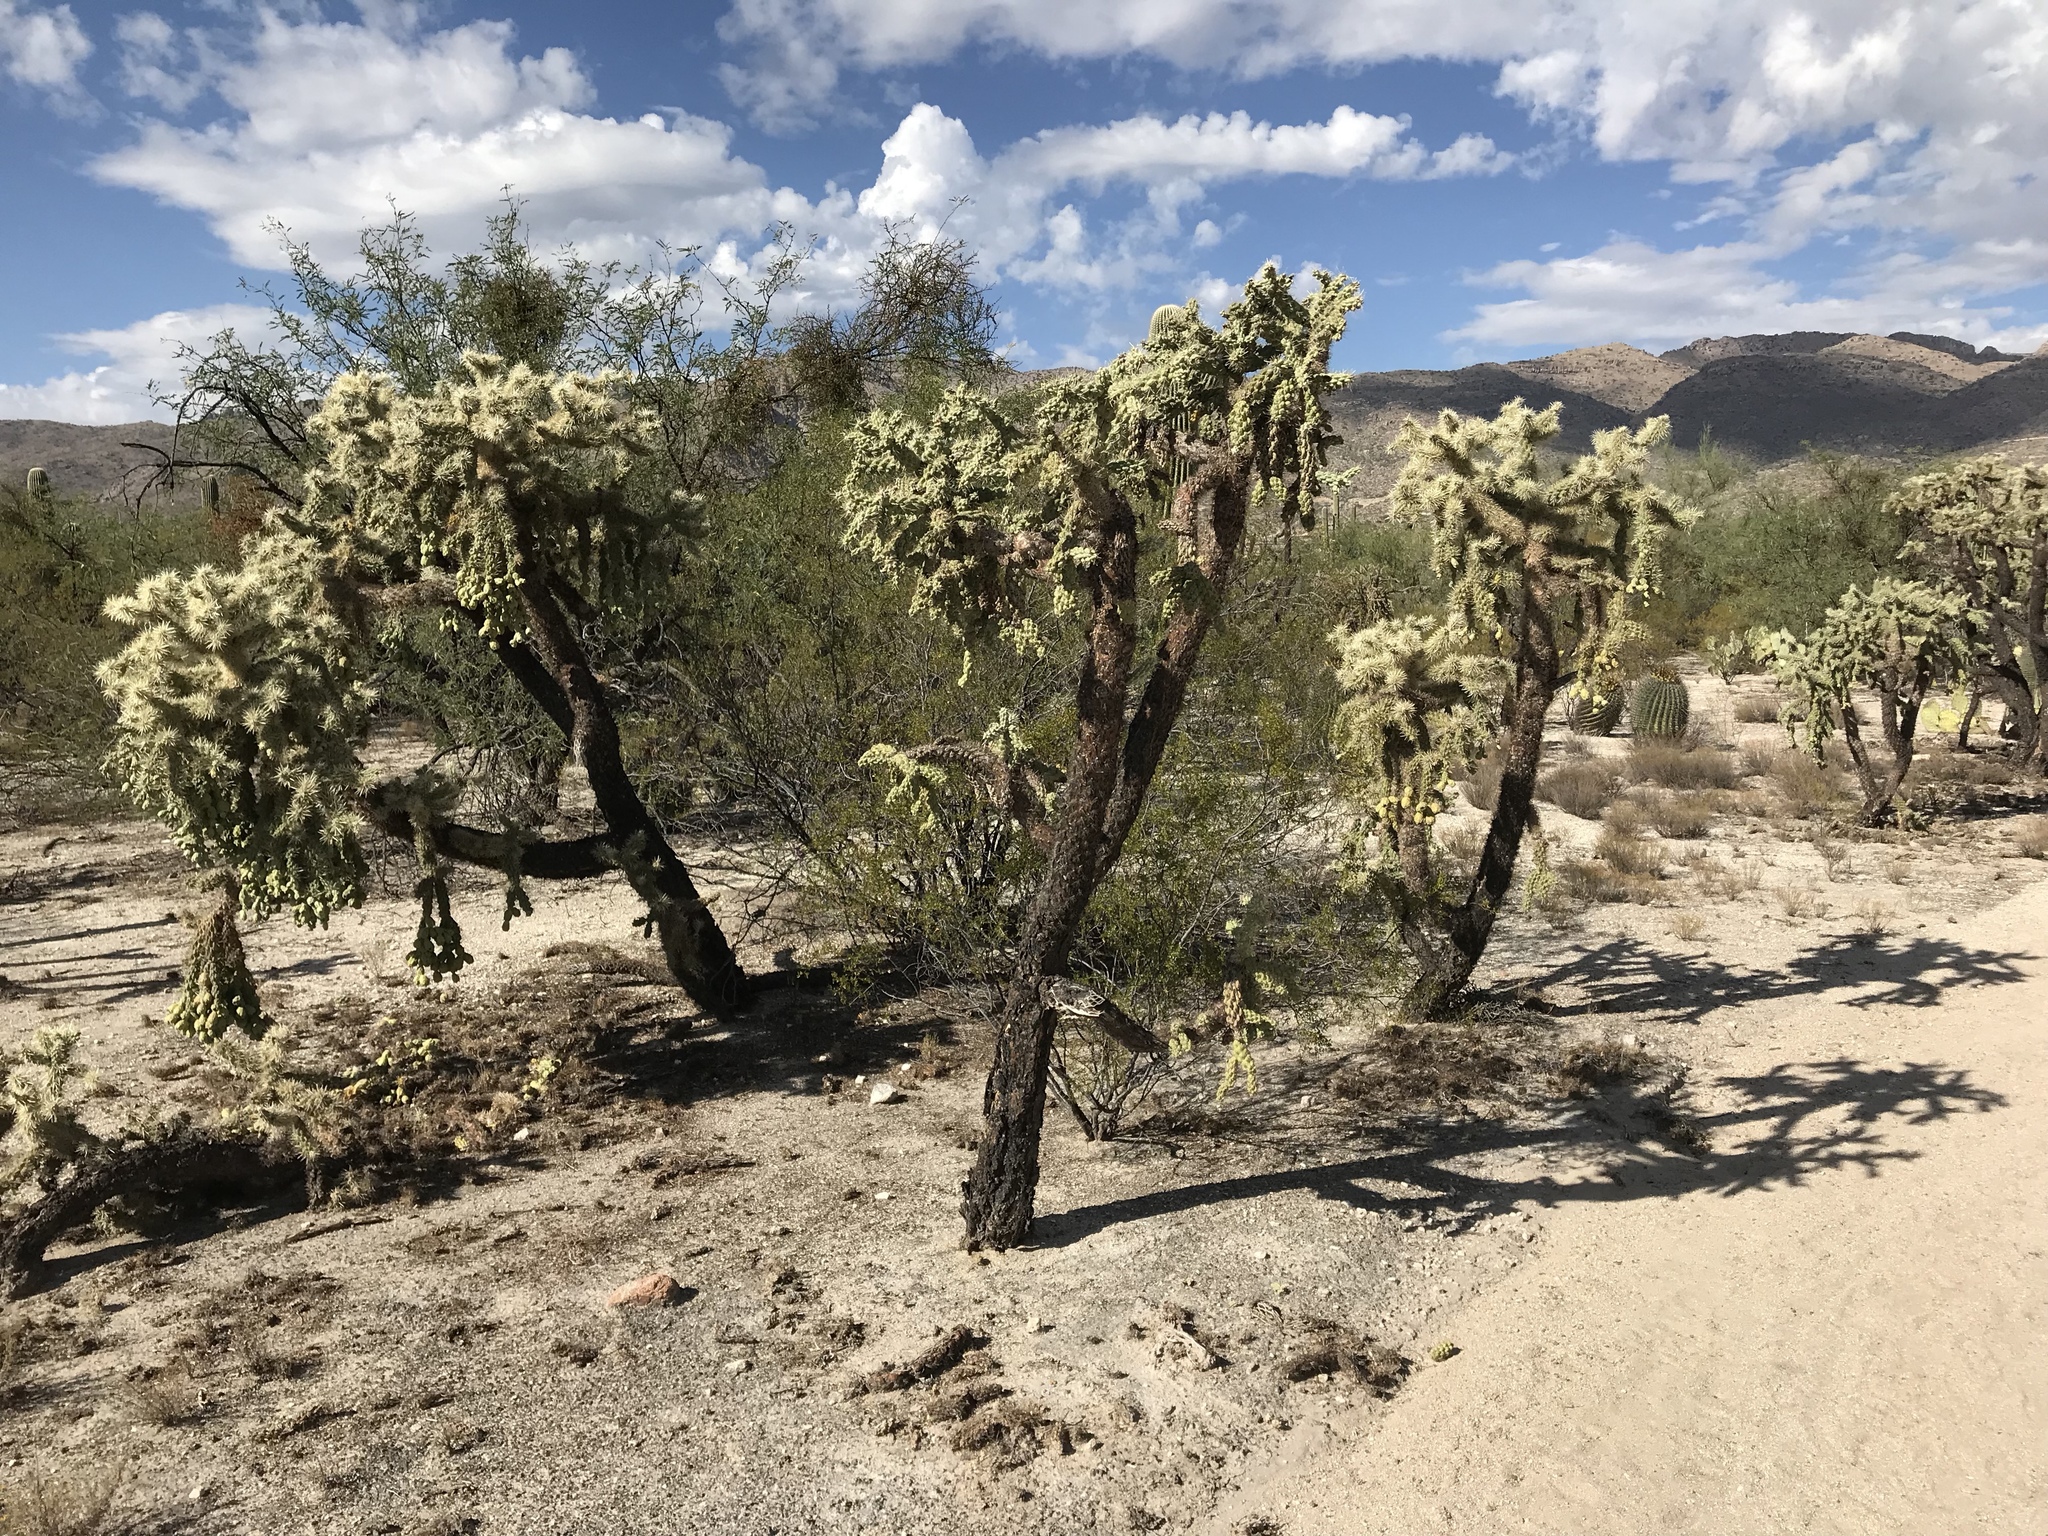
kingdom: Plantae
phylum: Tracheophyta
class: Magnoliopsida
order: Caryophyllales
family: Cactaceae
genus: Cylindropuntia
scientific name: Cylindropuntia fulgida
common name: Jumping cholla
